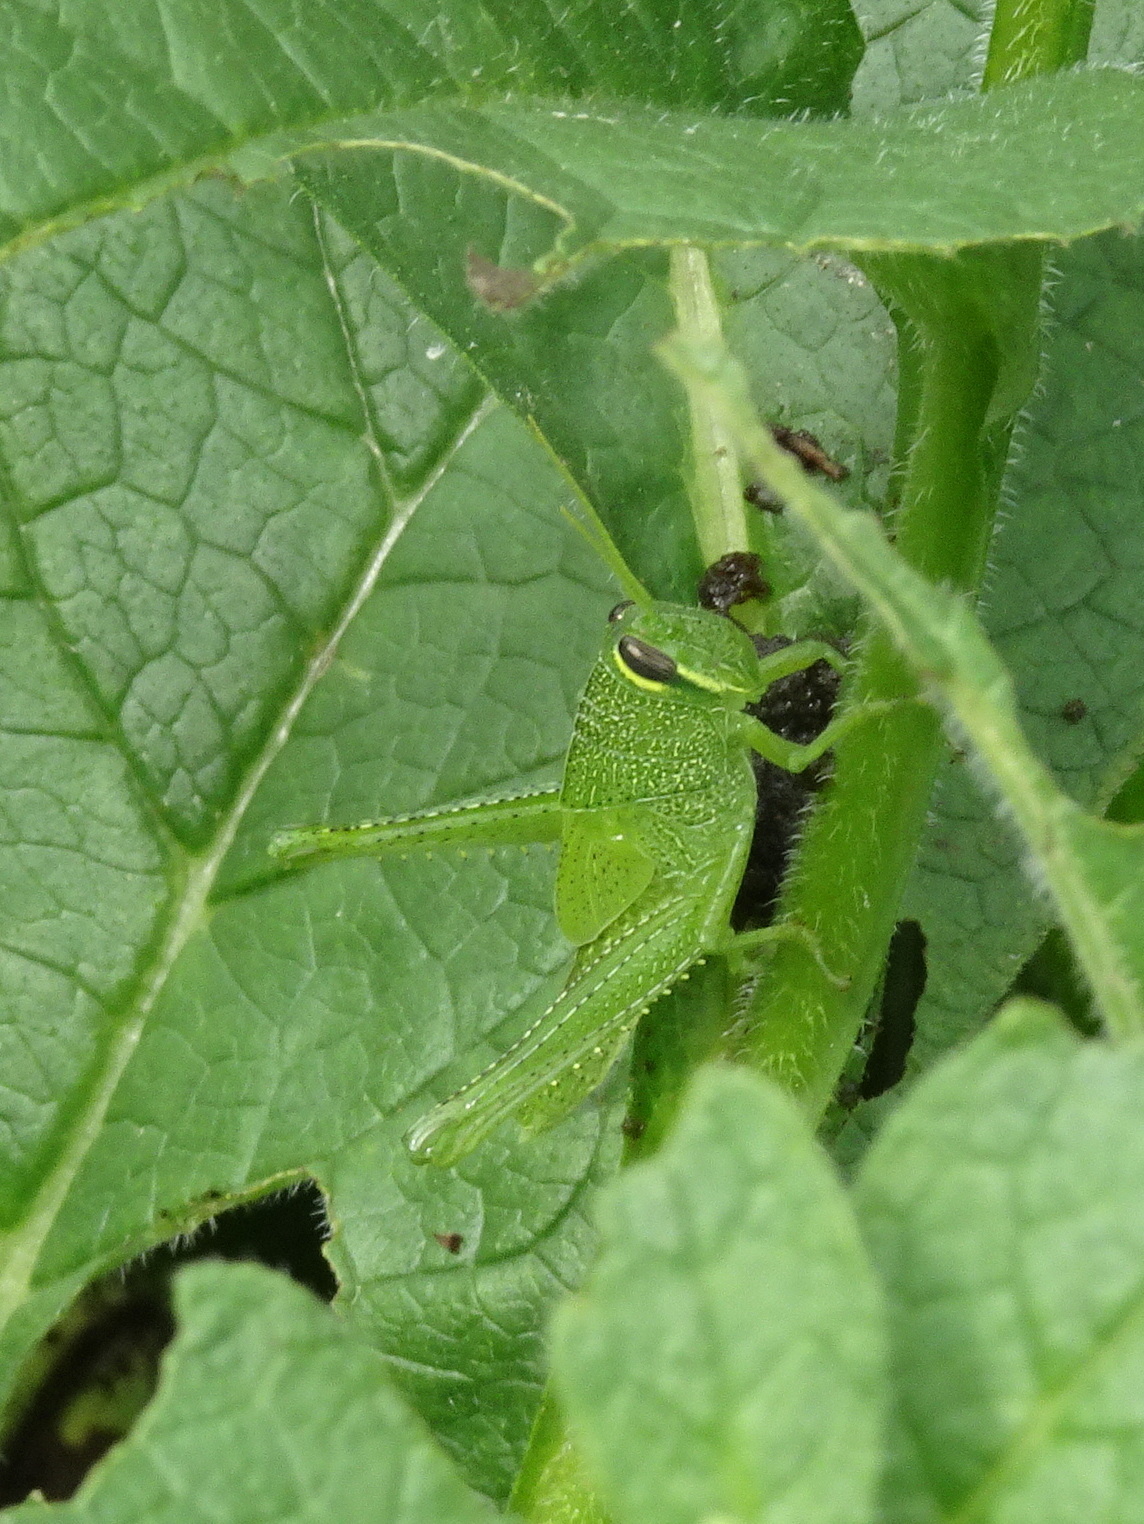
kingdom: Animalia
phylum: Arthropoda
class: Insecta
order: Orthoptera
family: Acrididae
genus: Schistocerca
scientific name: Schistocerca obscura
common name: Obscure bird grasshopper
